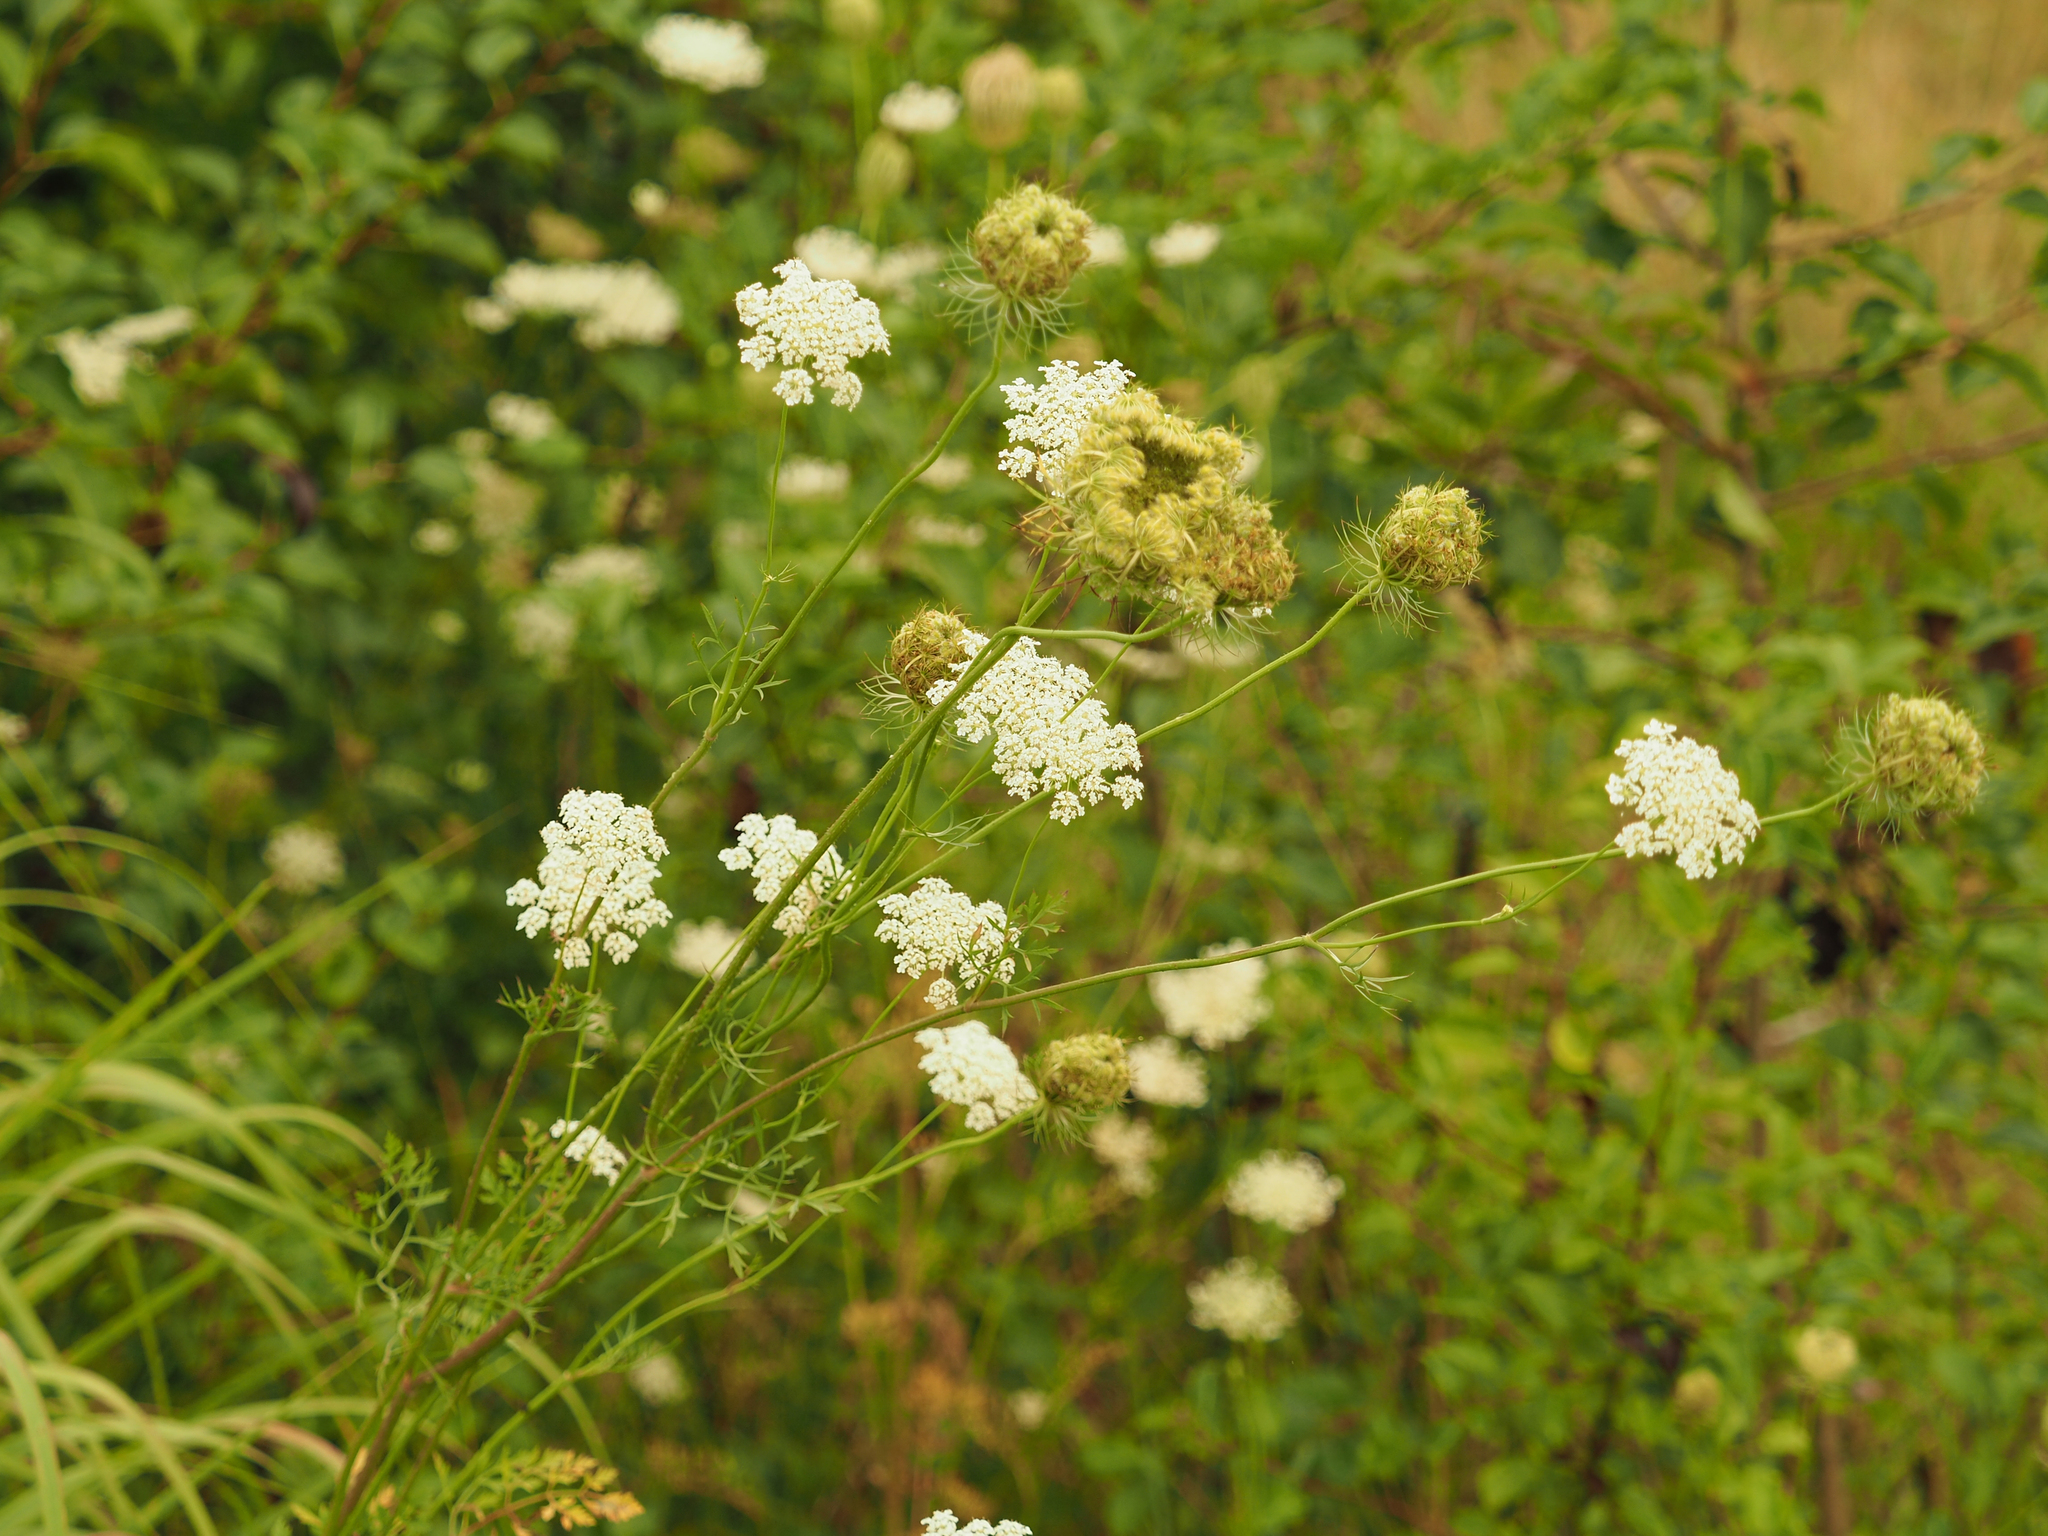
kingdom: Plantae
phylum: Tracheophyta
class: Magnoliopsida
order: Apiales
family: Apiaceae
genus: Daucus
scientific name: Daucus carota
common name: Wild carrot
